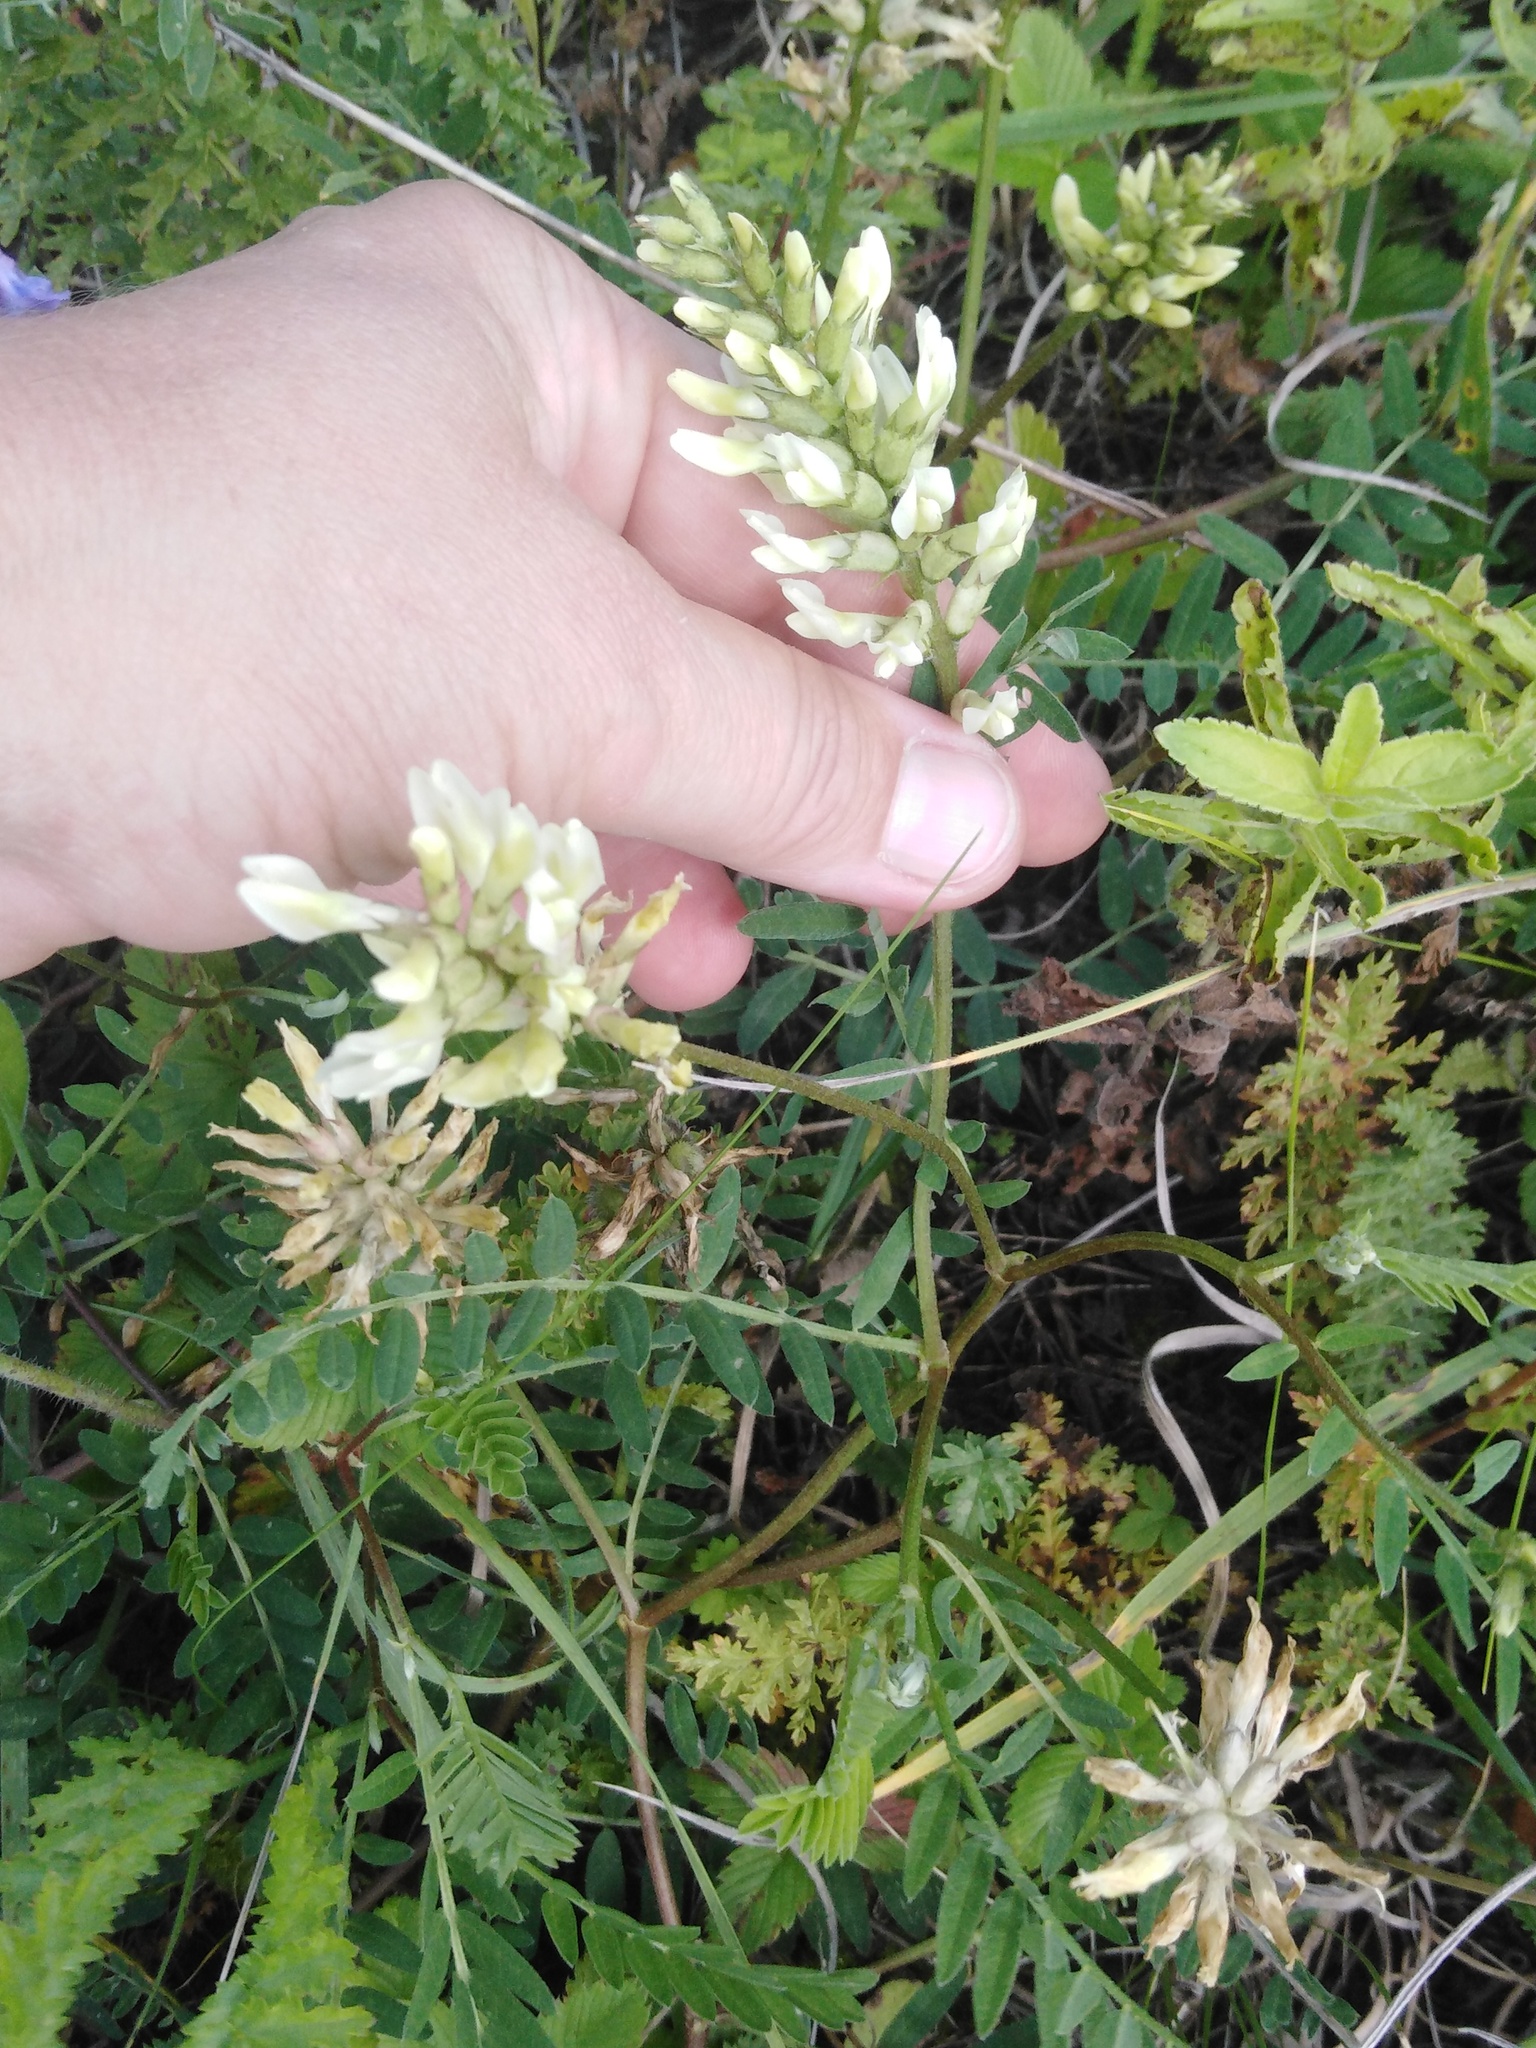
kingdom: Plantae
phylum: Tracheophyta
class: Magnoliopsida
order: Fabales
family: Fabaceae
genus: Astragalus
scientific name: Astragalus cicer
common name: Chick-pea milk-vetch
